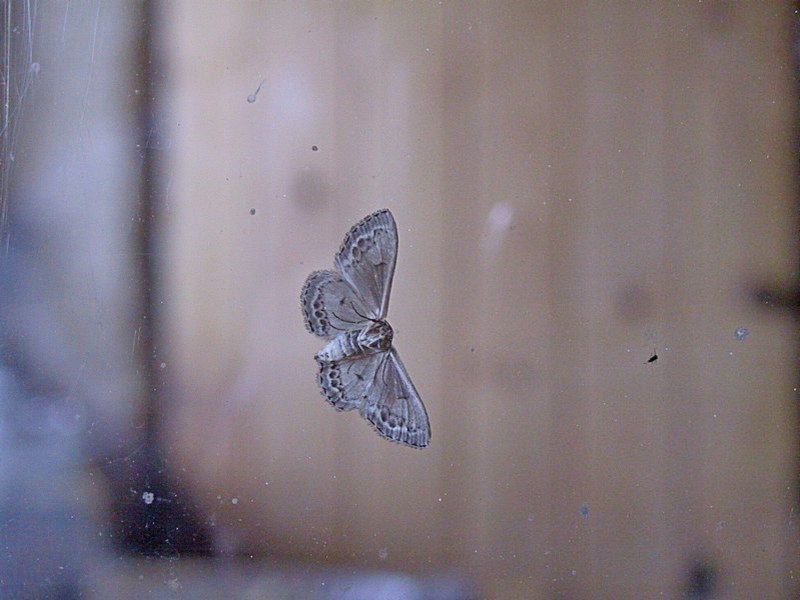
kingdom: Animalia
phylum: Arthropoda
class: Insecta
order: Lepidoptera
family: Geometridae
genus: Dithalama
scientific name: Dithalama cosmospila
